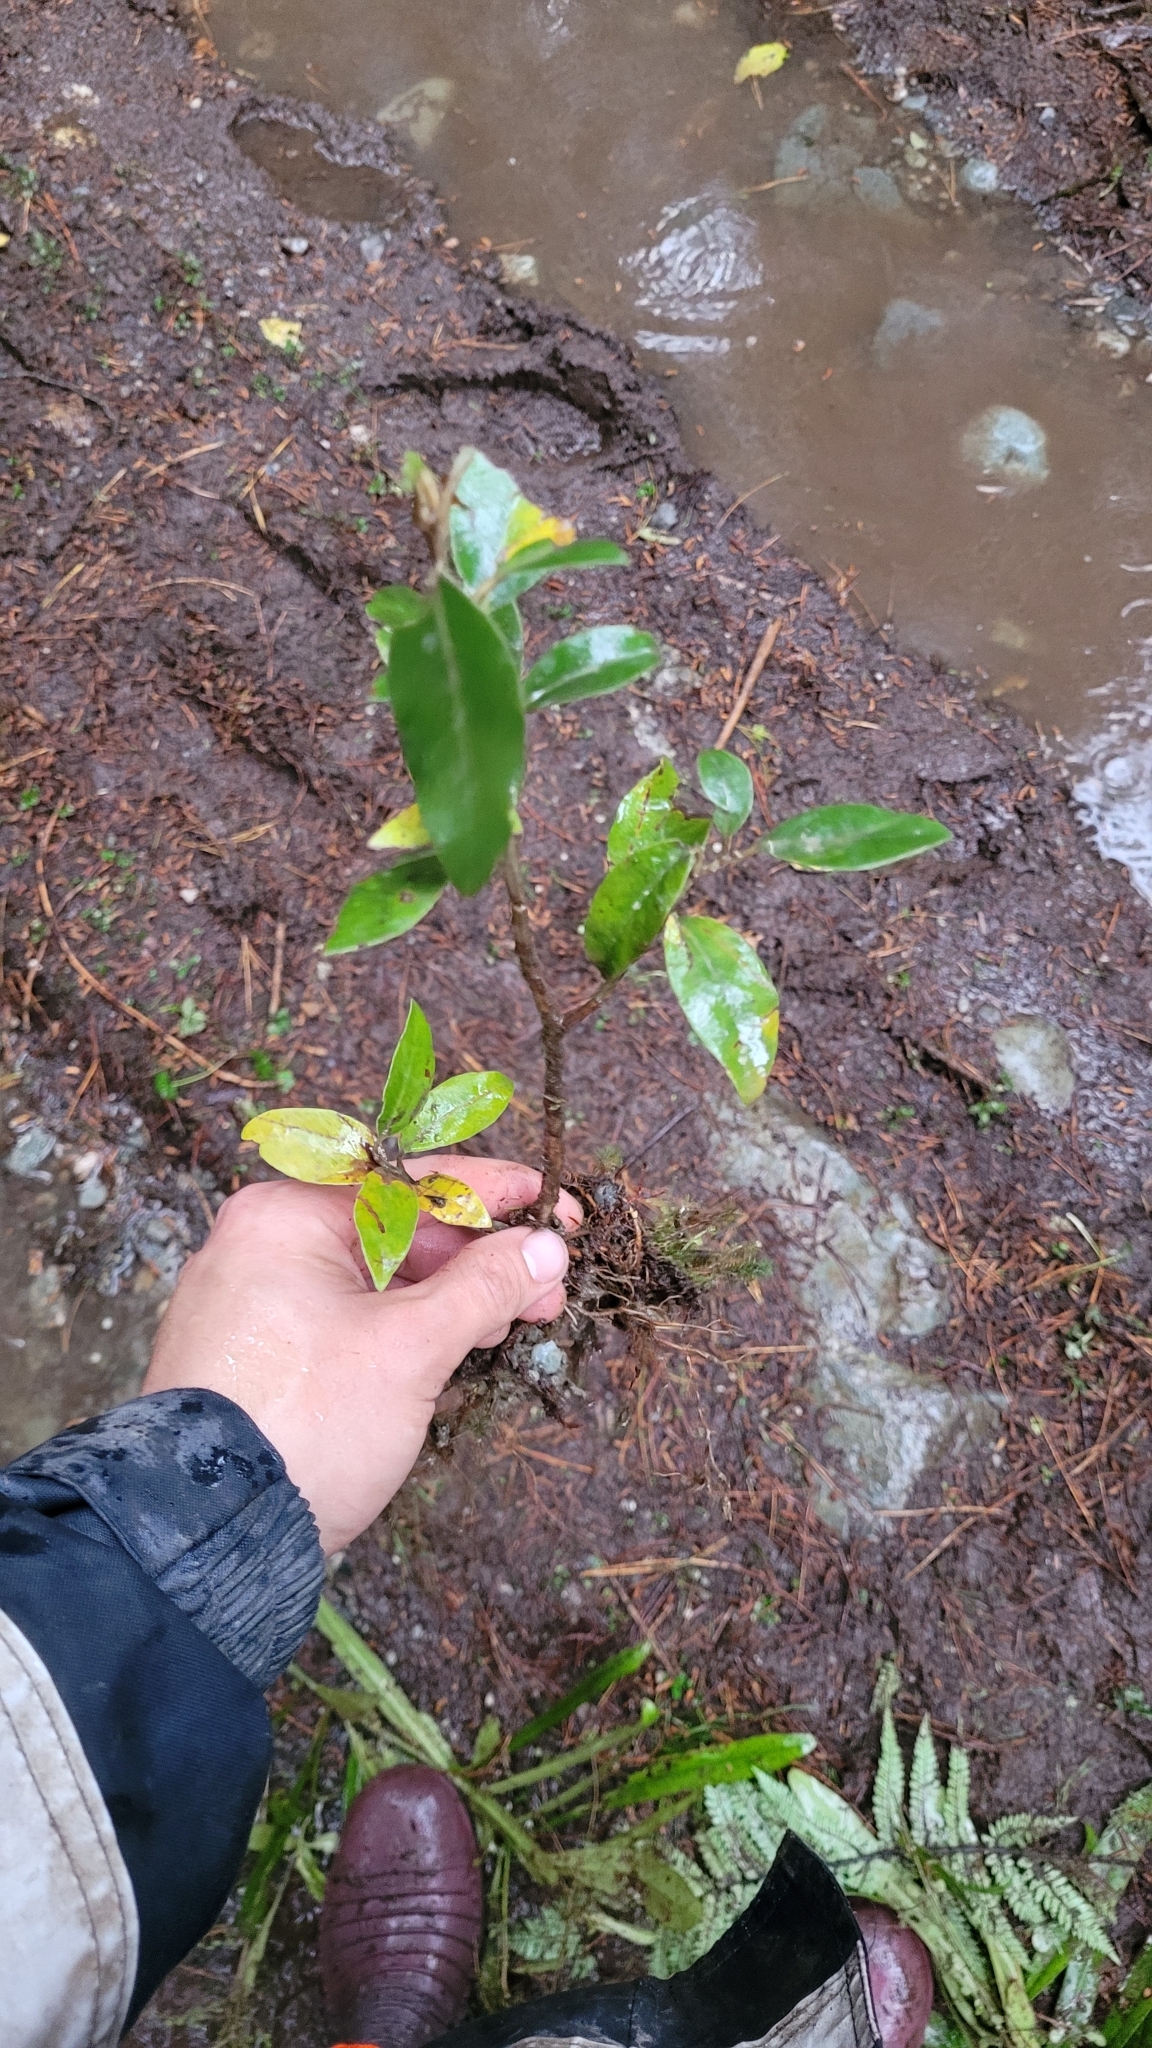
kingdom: Plantae
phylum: Tracheophyta
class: Magnoliopsida
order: Asterales
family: Asteraceae
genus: Olearia
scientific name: Olearia avicenniifolia
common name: Mangrove-leaf daisybush
